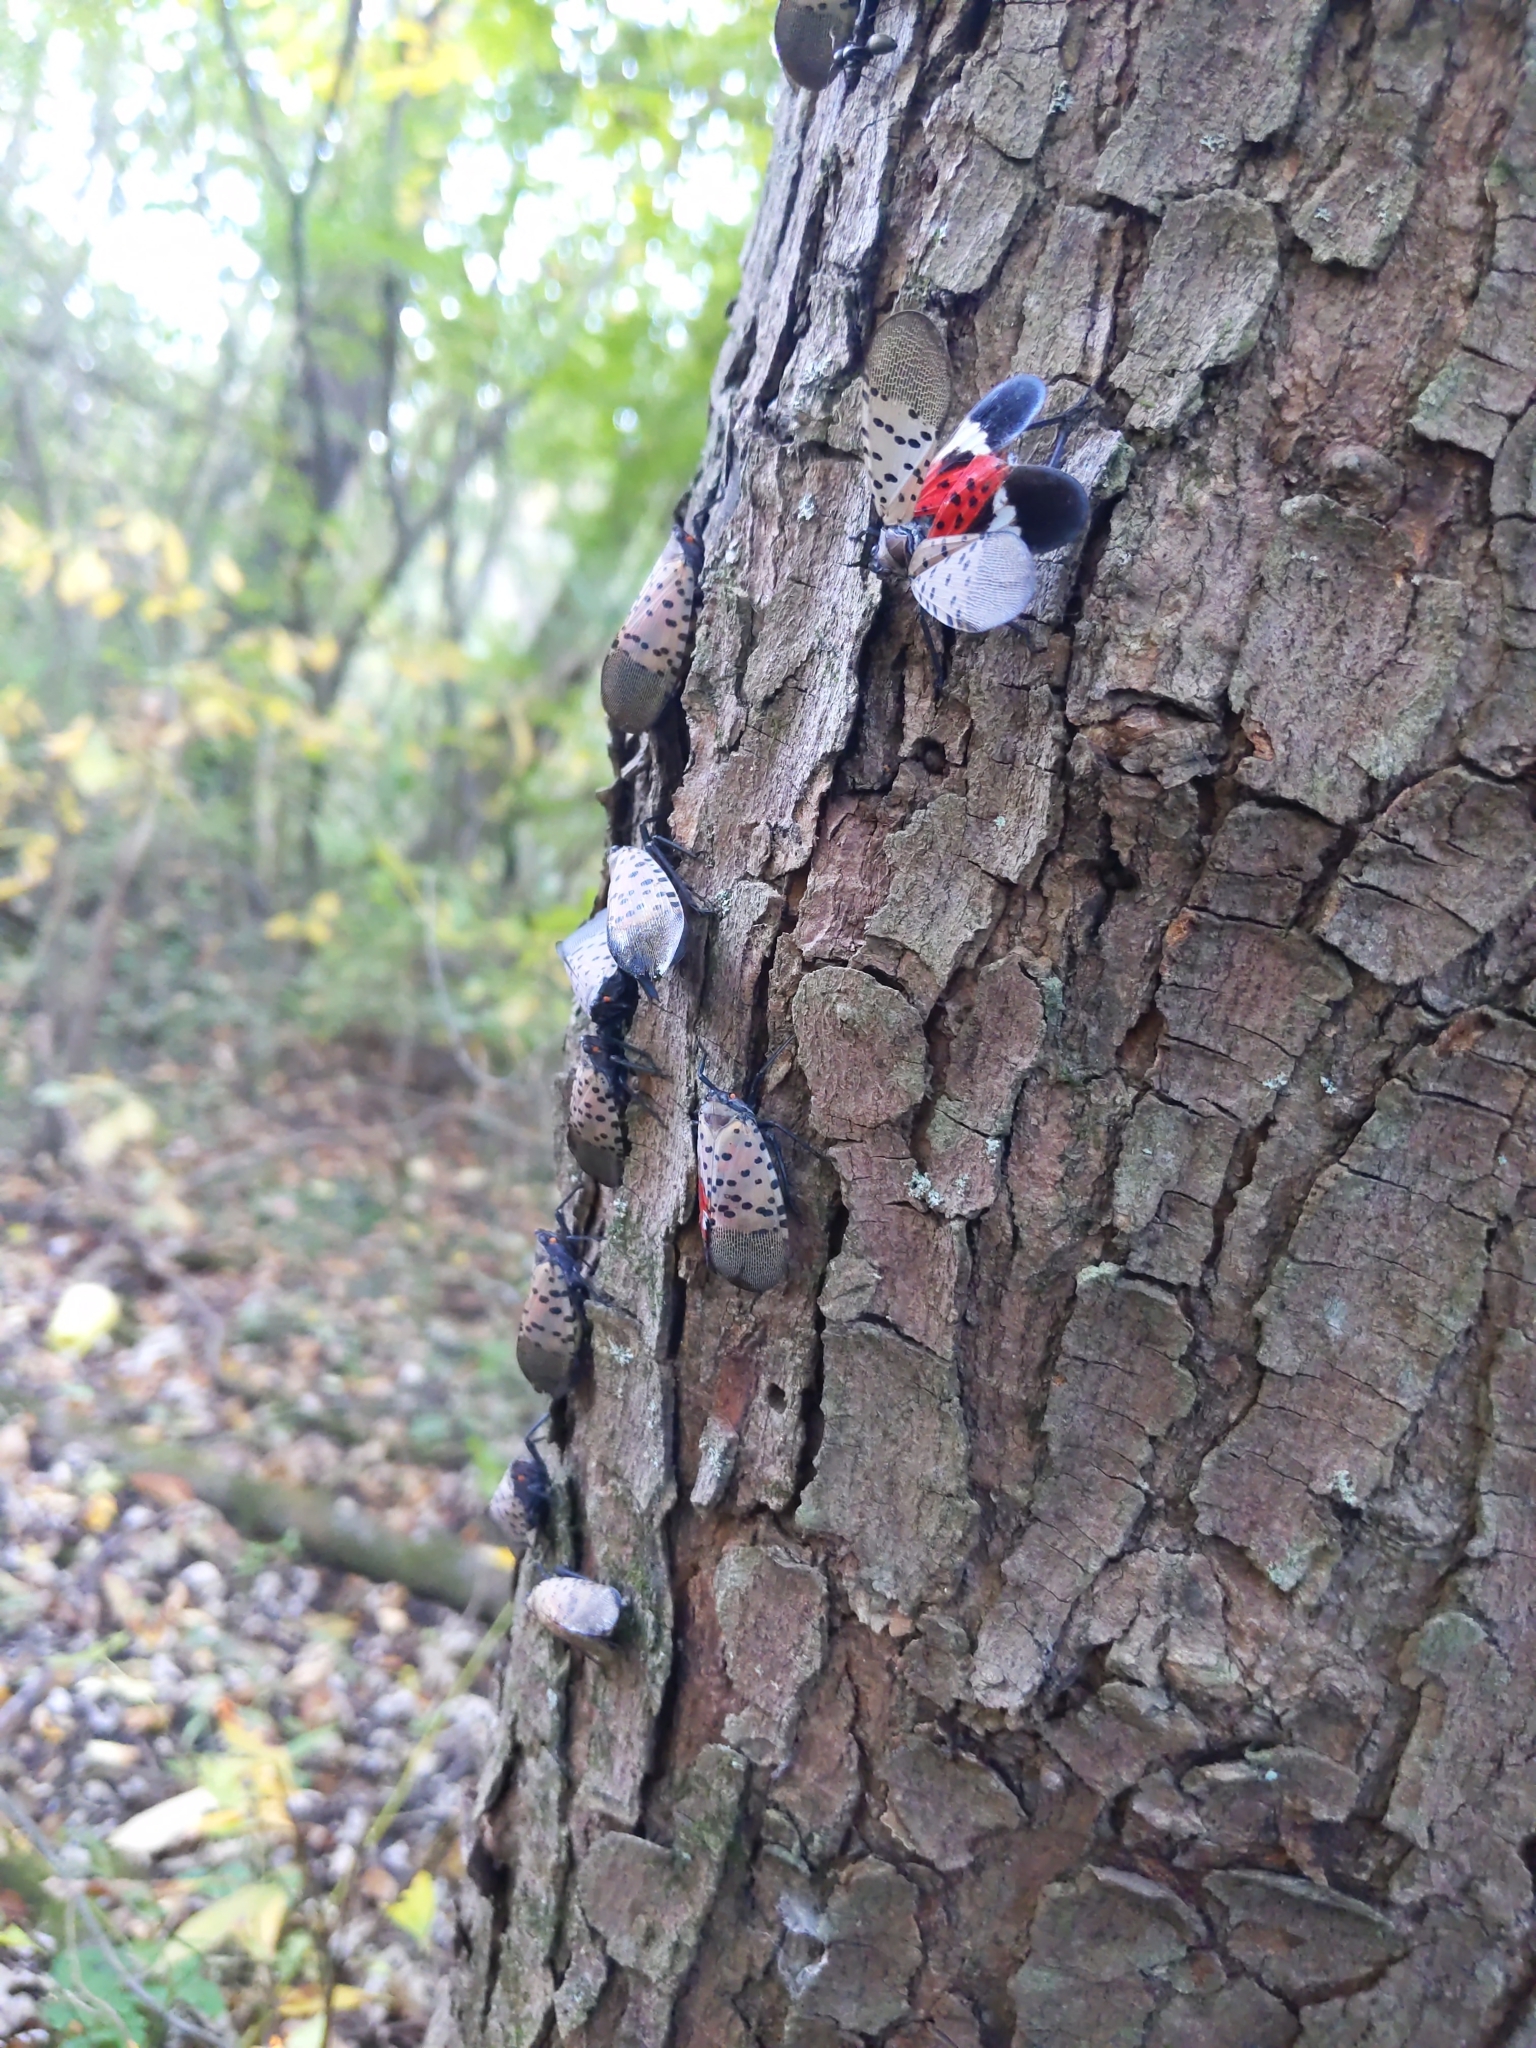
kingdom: Animalia
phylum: Arthropoda
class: Insecta
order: Hemiptera
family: Fulgoridae
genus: Lycorma
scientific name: Lycorma delicatula
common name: Spotted lanternfly
